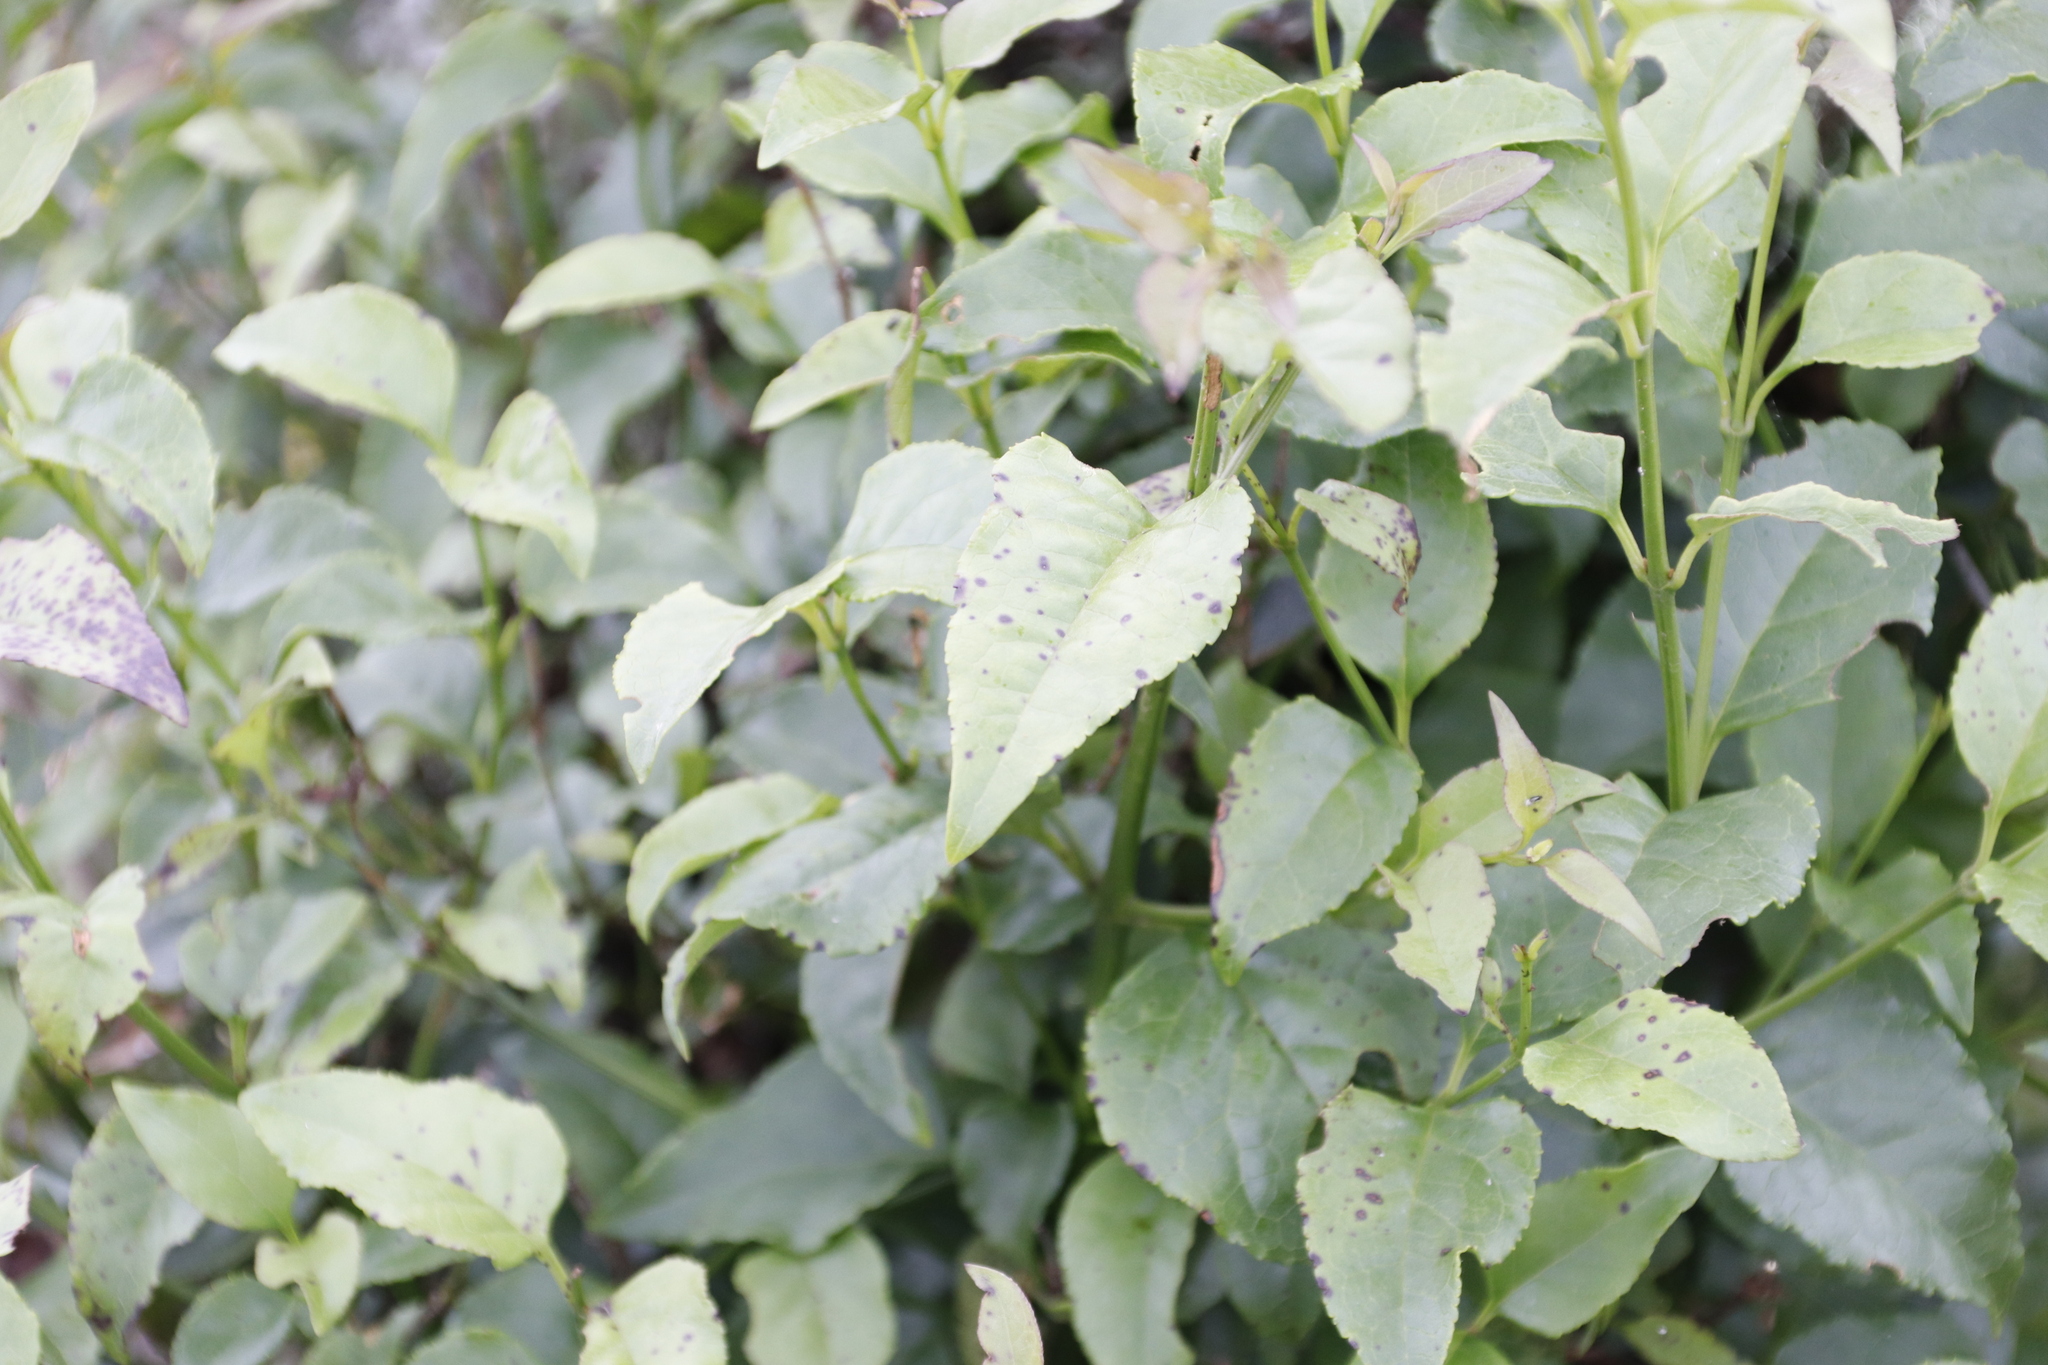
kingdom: Plantae
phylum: Tracheophyta
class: Magnoliopsida
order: Lamiales
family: Stilbaceae
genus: Halleria
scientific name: Halleria lucida
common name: Tree fuschia
